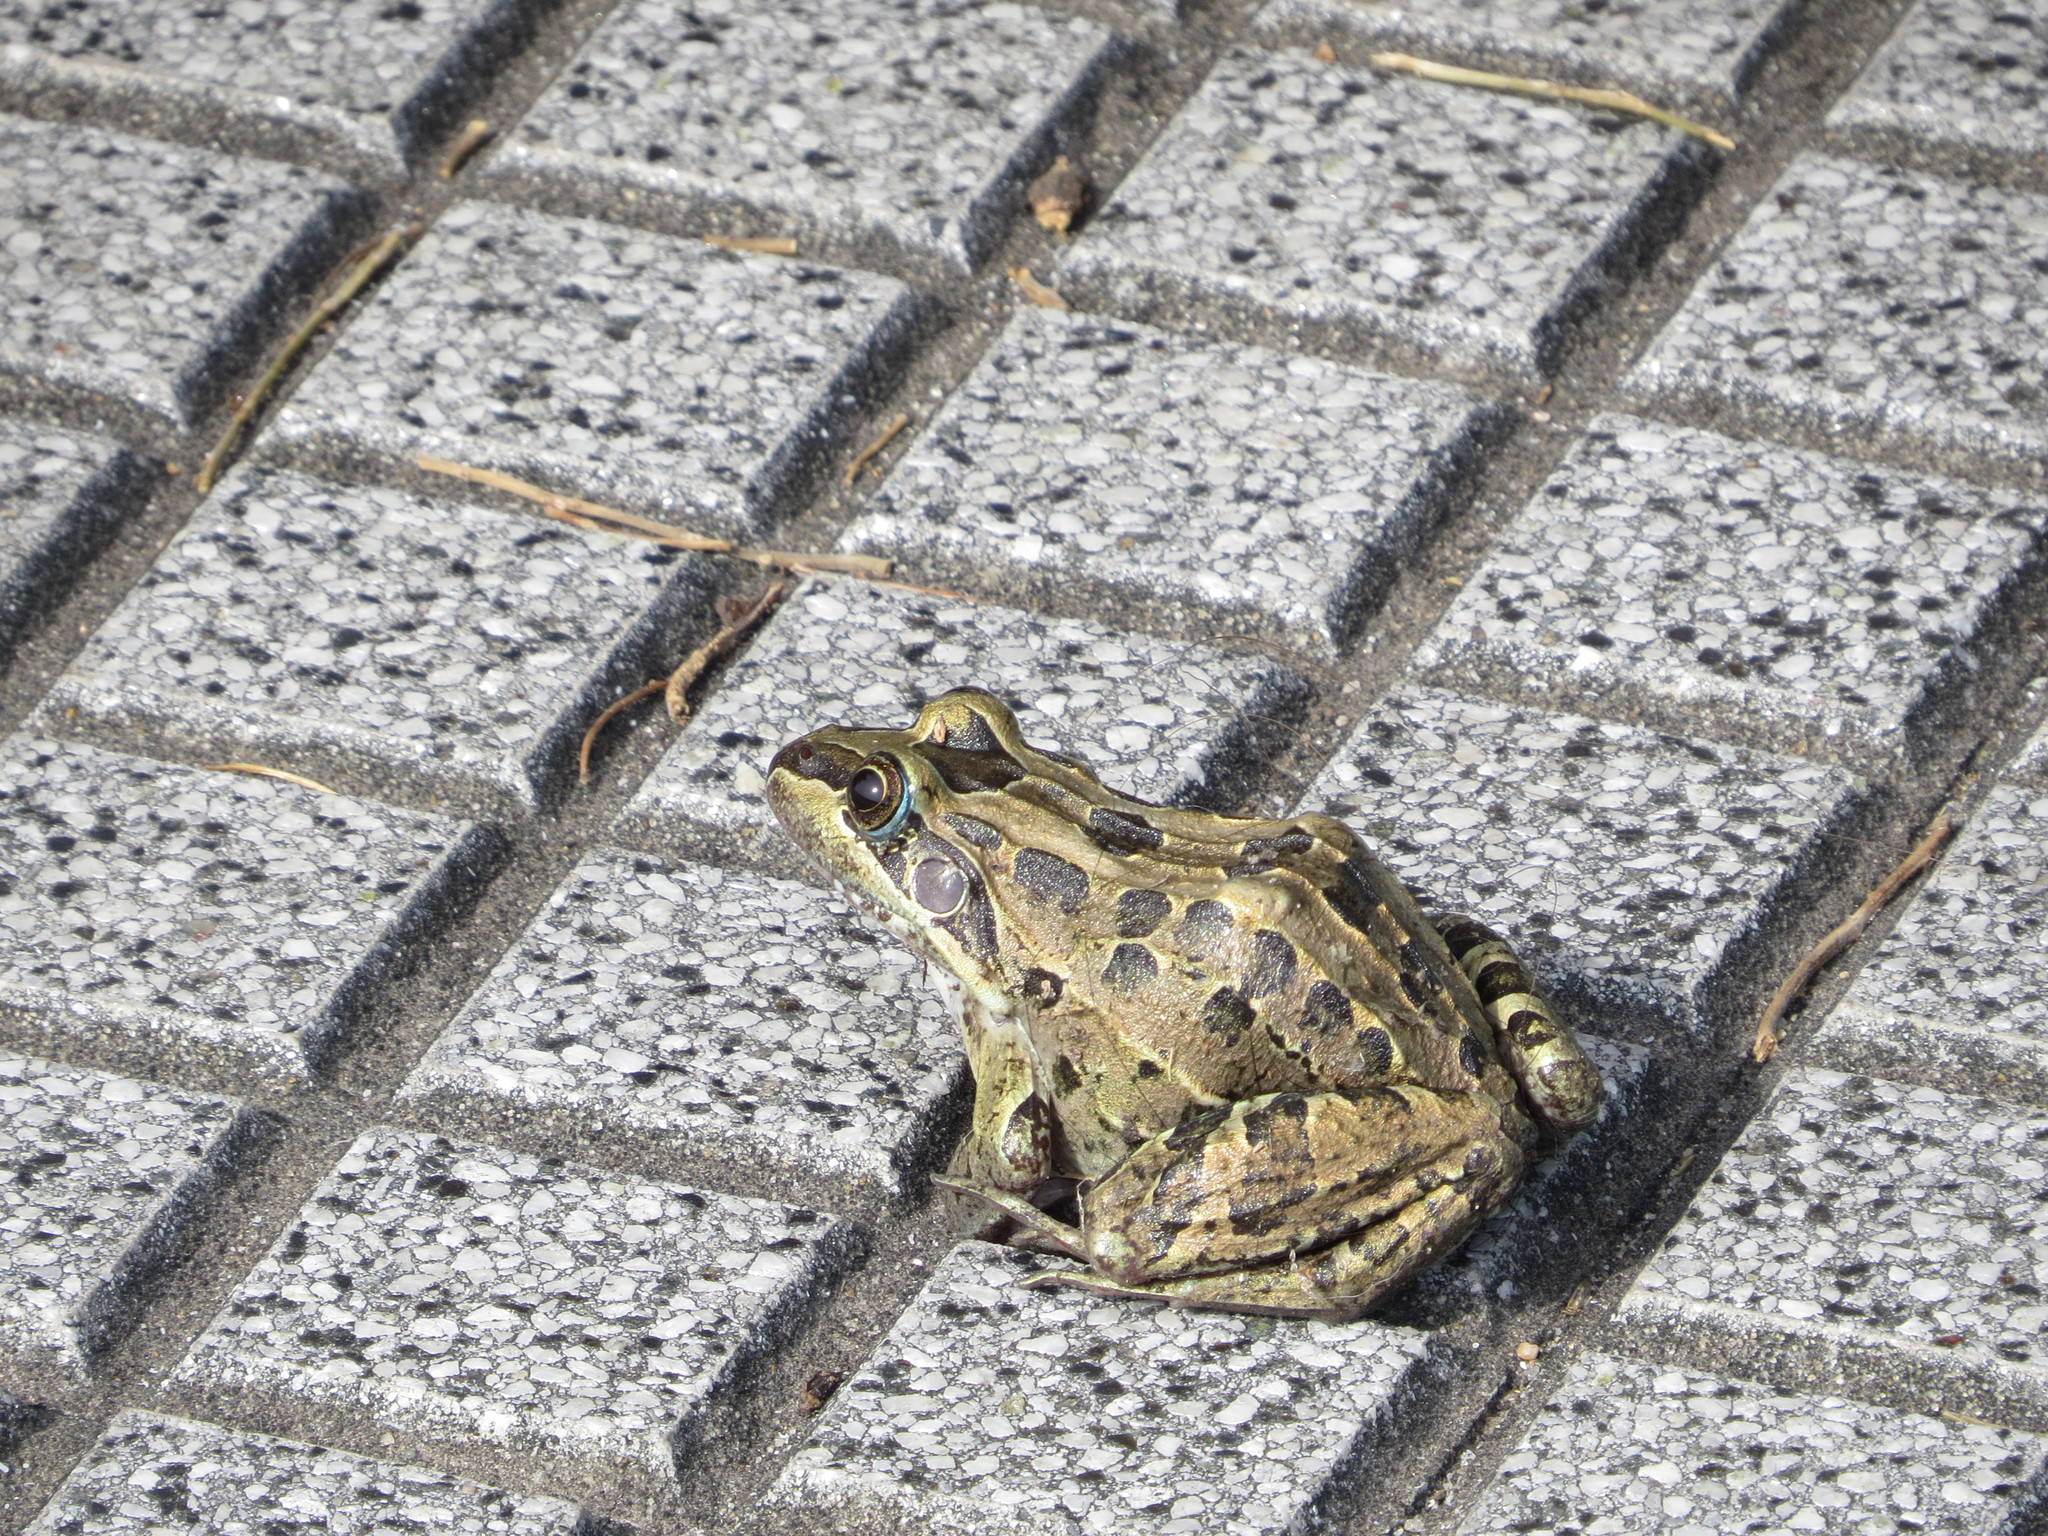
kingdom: Animalia
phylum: Chordata
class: Amphibia
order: Anura
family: Leptodactylidae
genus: Leptodactylus
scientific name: Leptodactylus luctator
